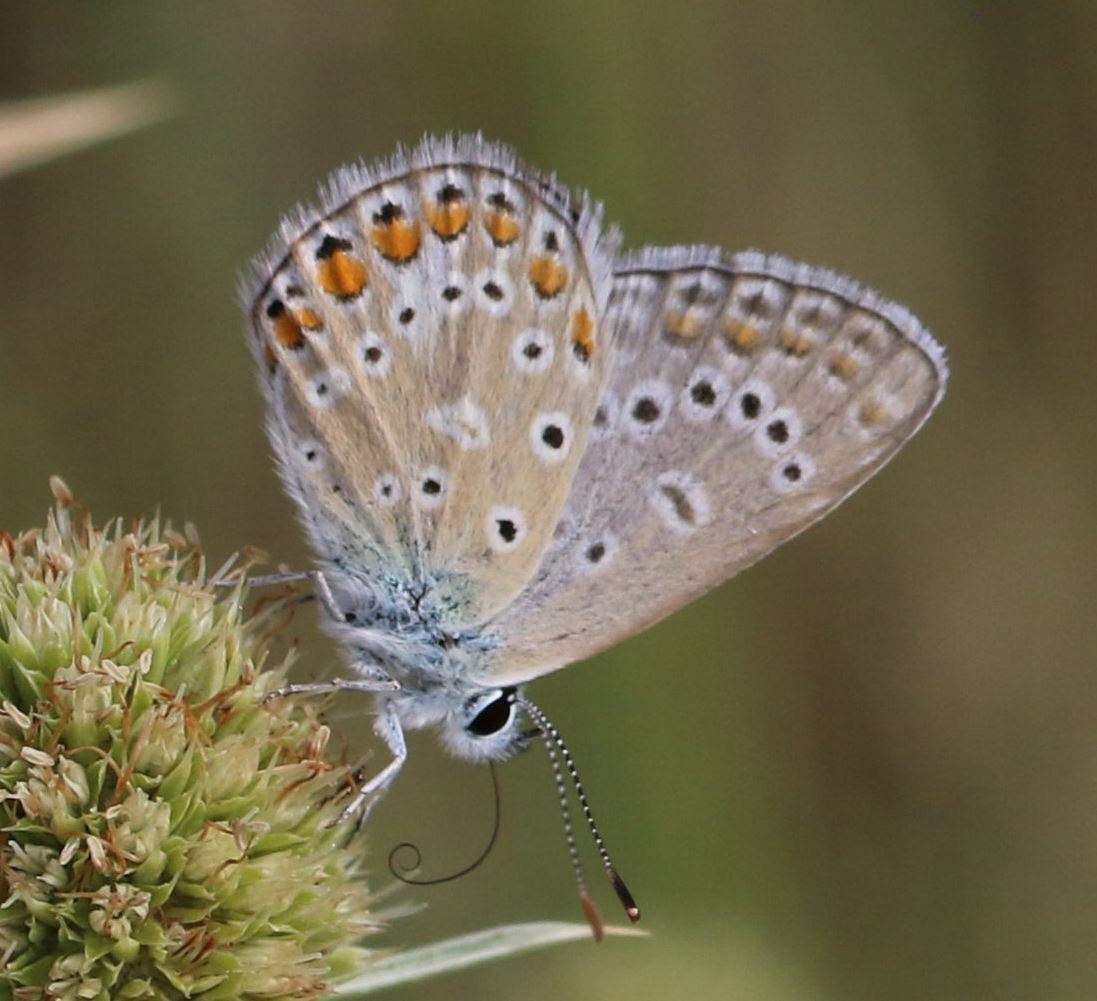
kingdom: Animalia
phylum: Arthropoda
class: Insecta
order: Lepidoptera
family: Lycaenidae
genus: Polyommatus
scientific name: Polyommatus icarus
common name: Common blue
